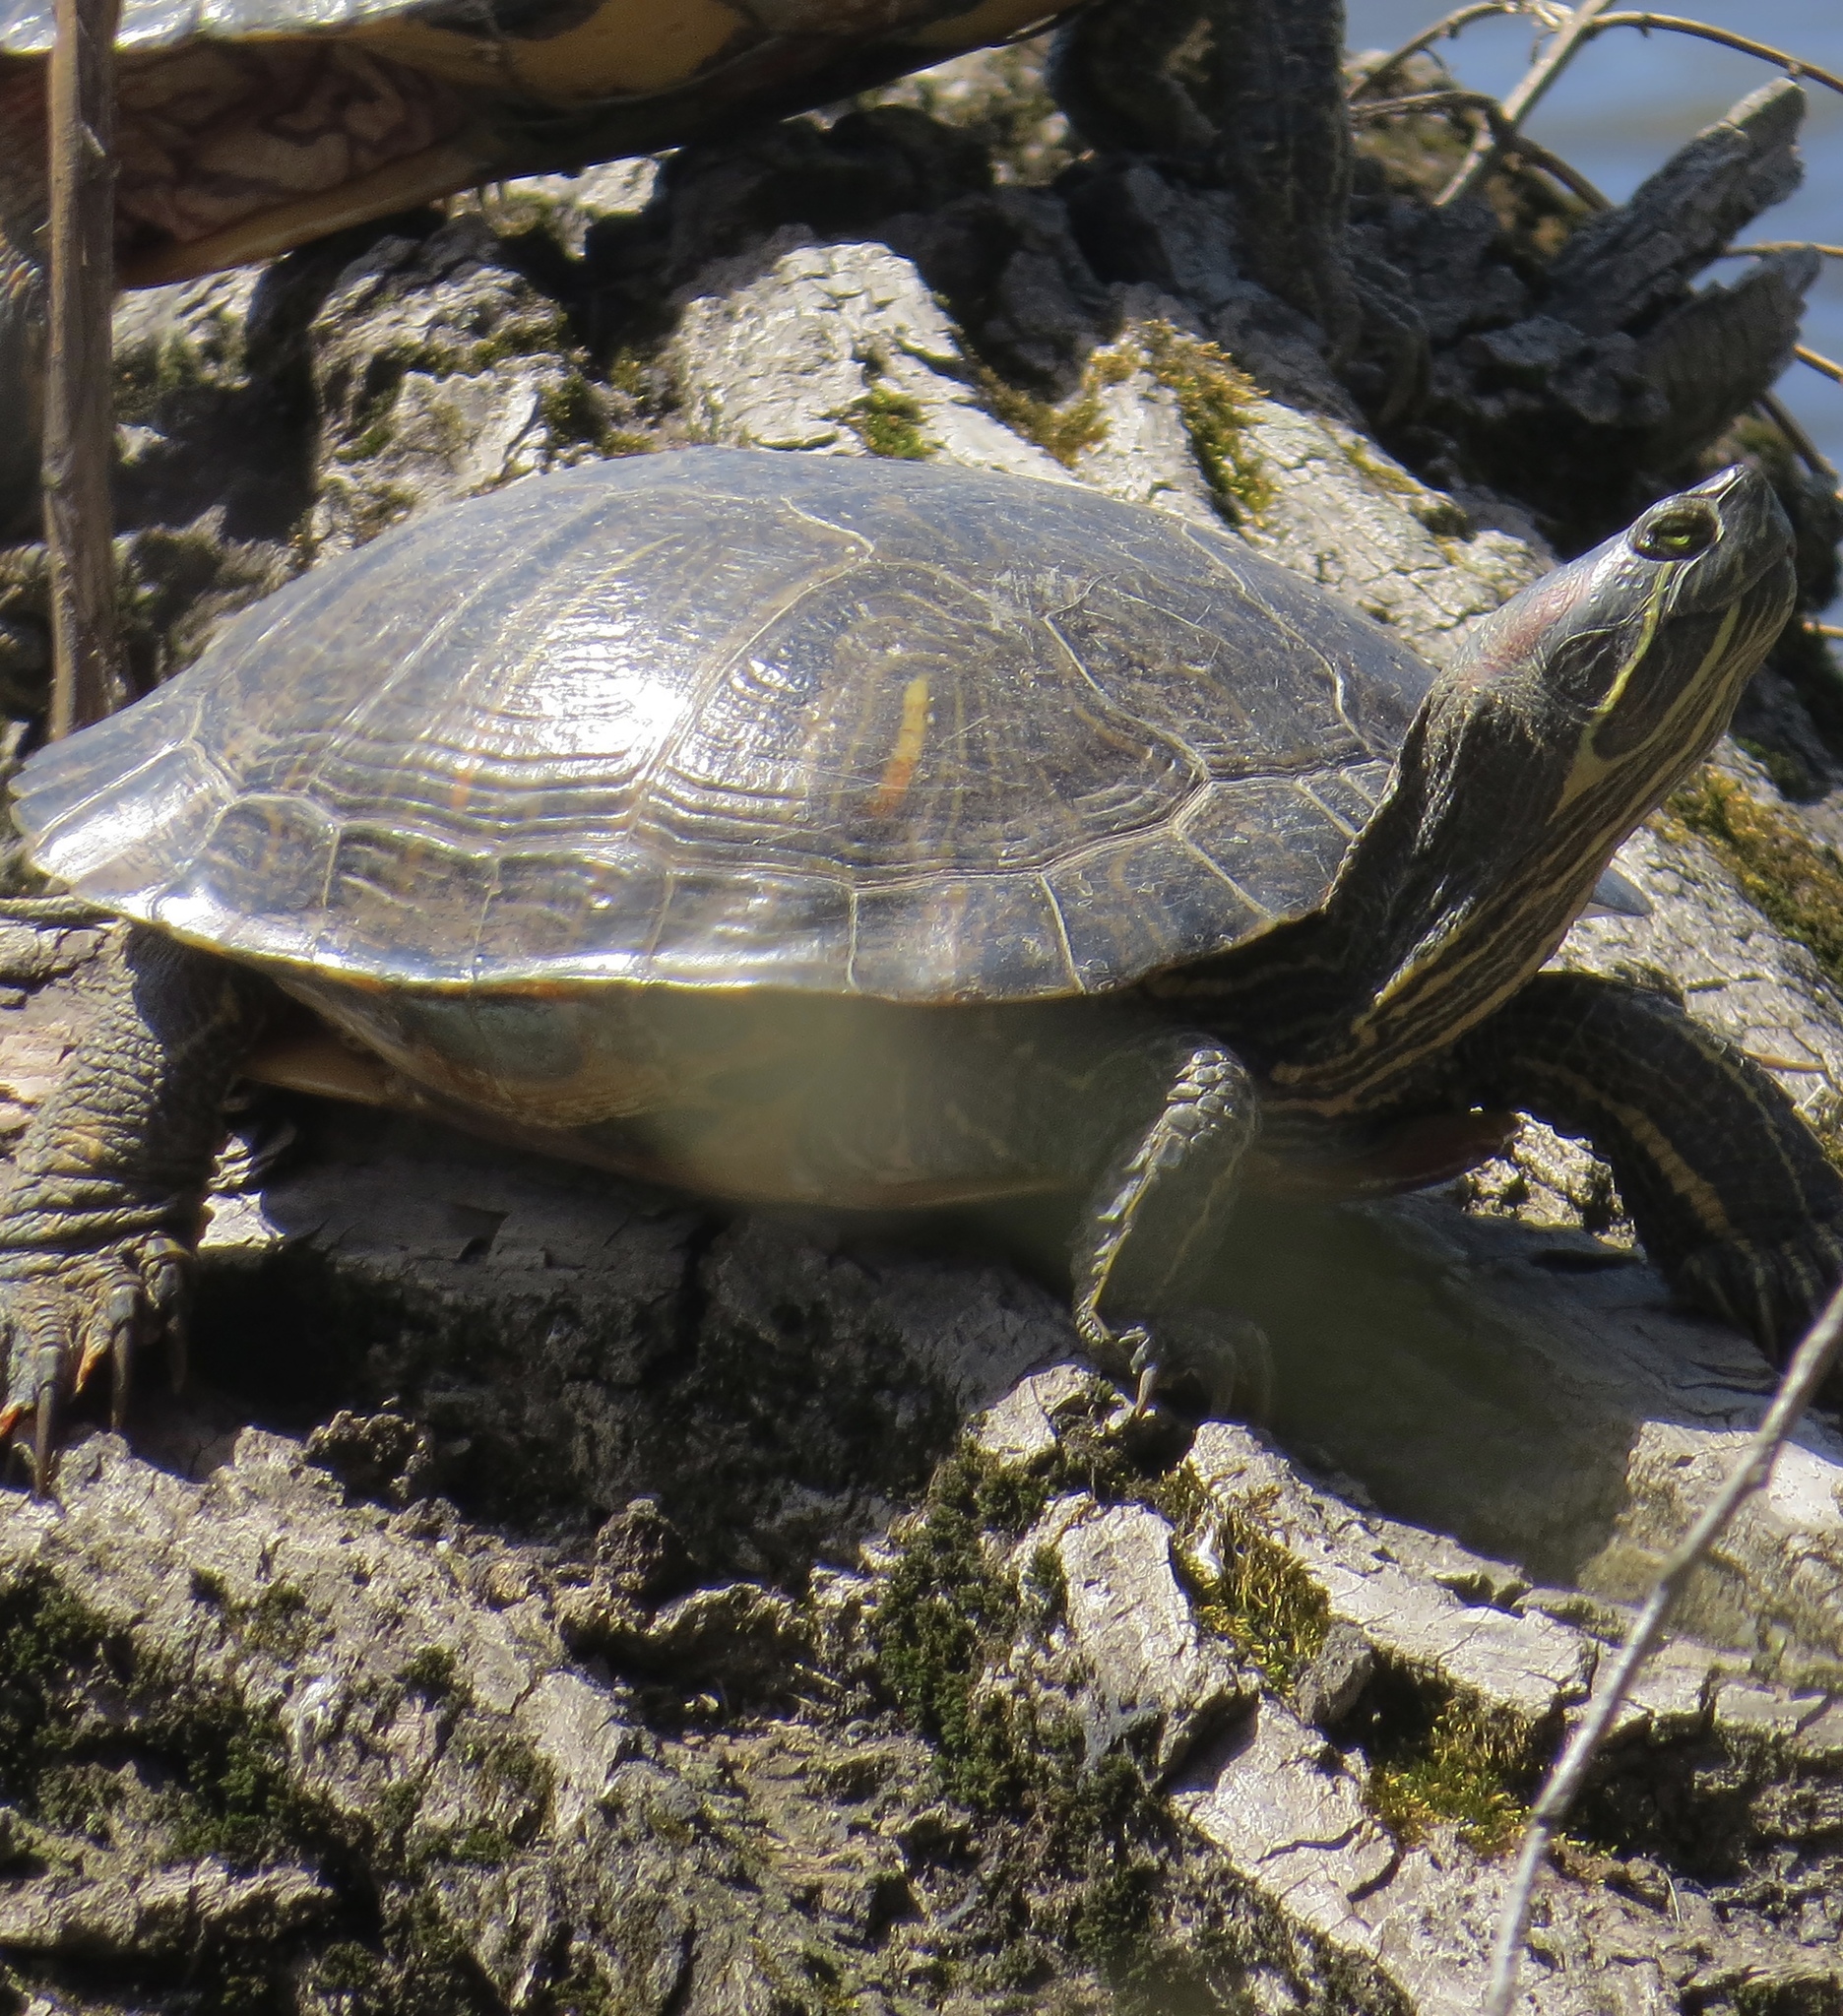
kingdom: Animalia
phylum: Chordata
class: Testudines
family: Emydidae
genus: Trachemys
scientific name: Trachemys scripta
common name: Slider
